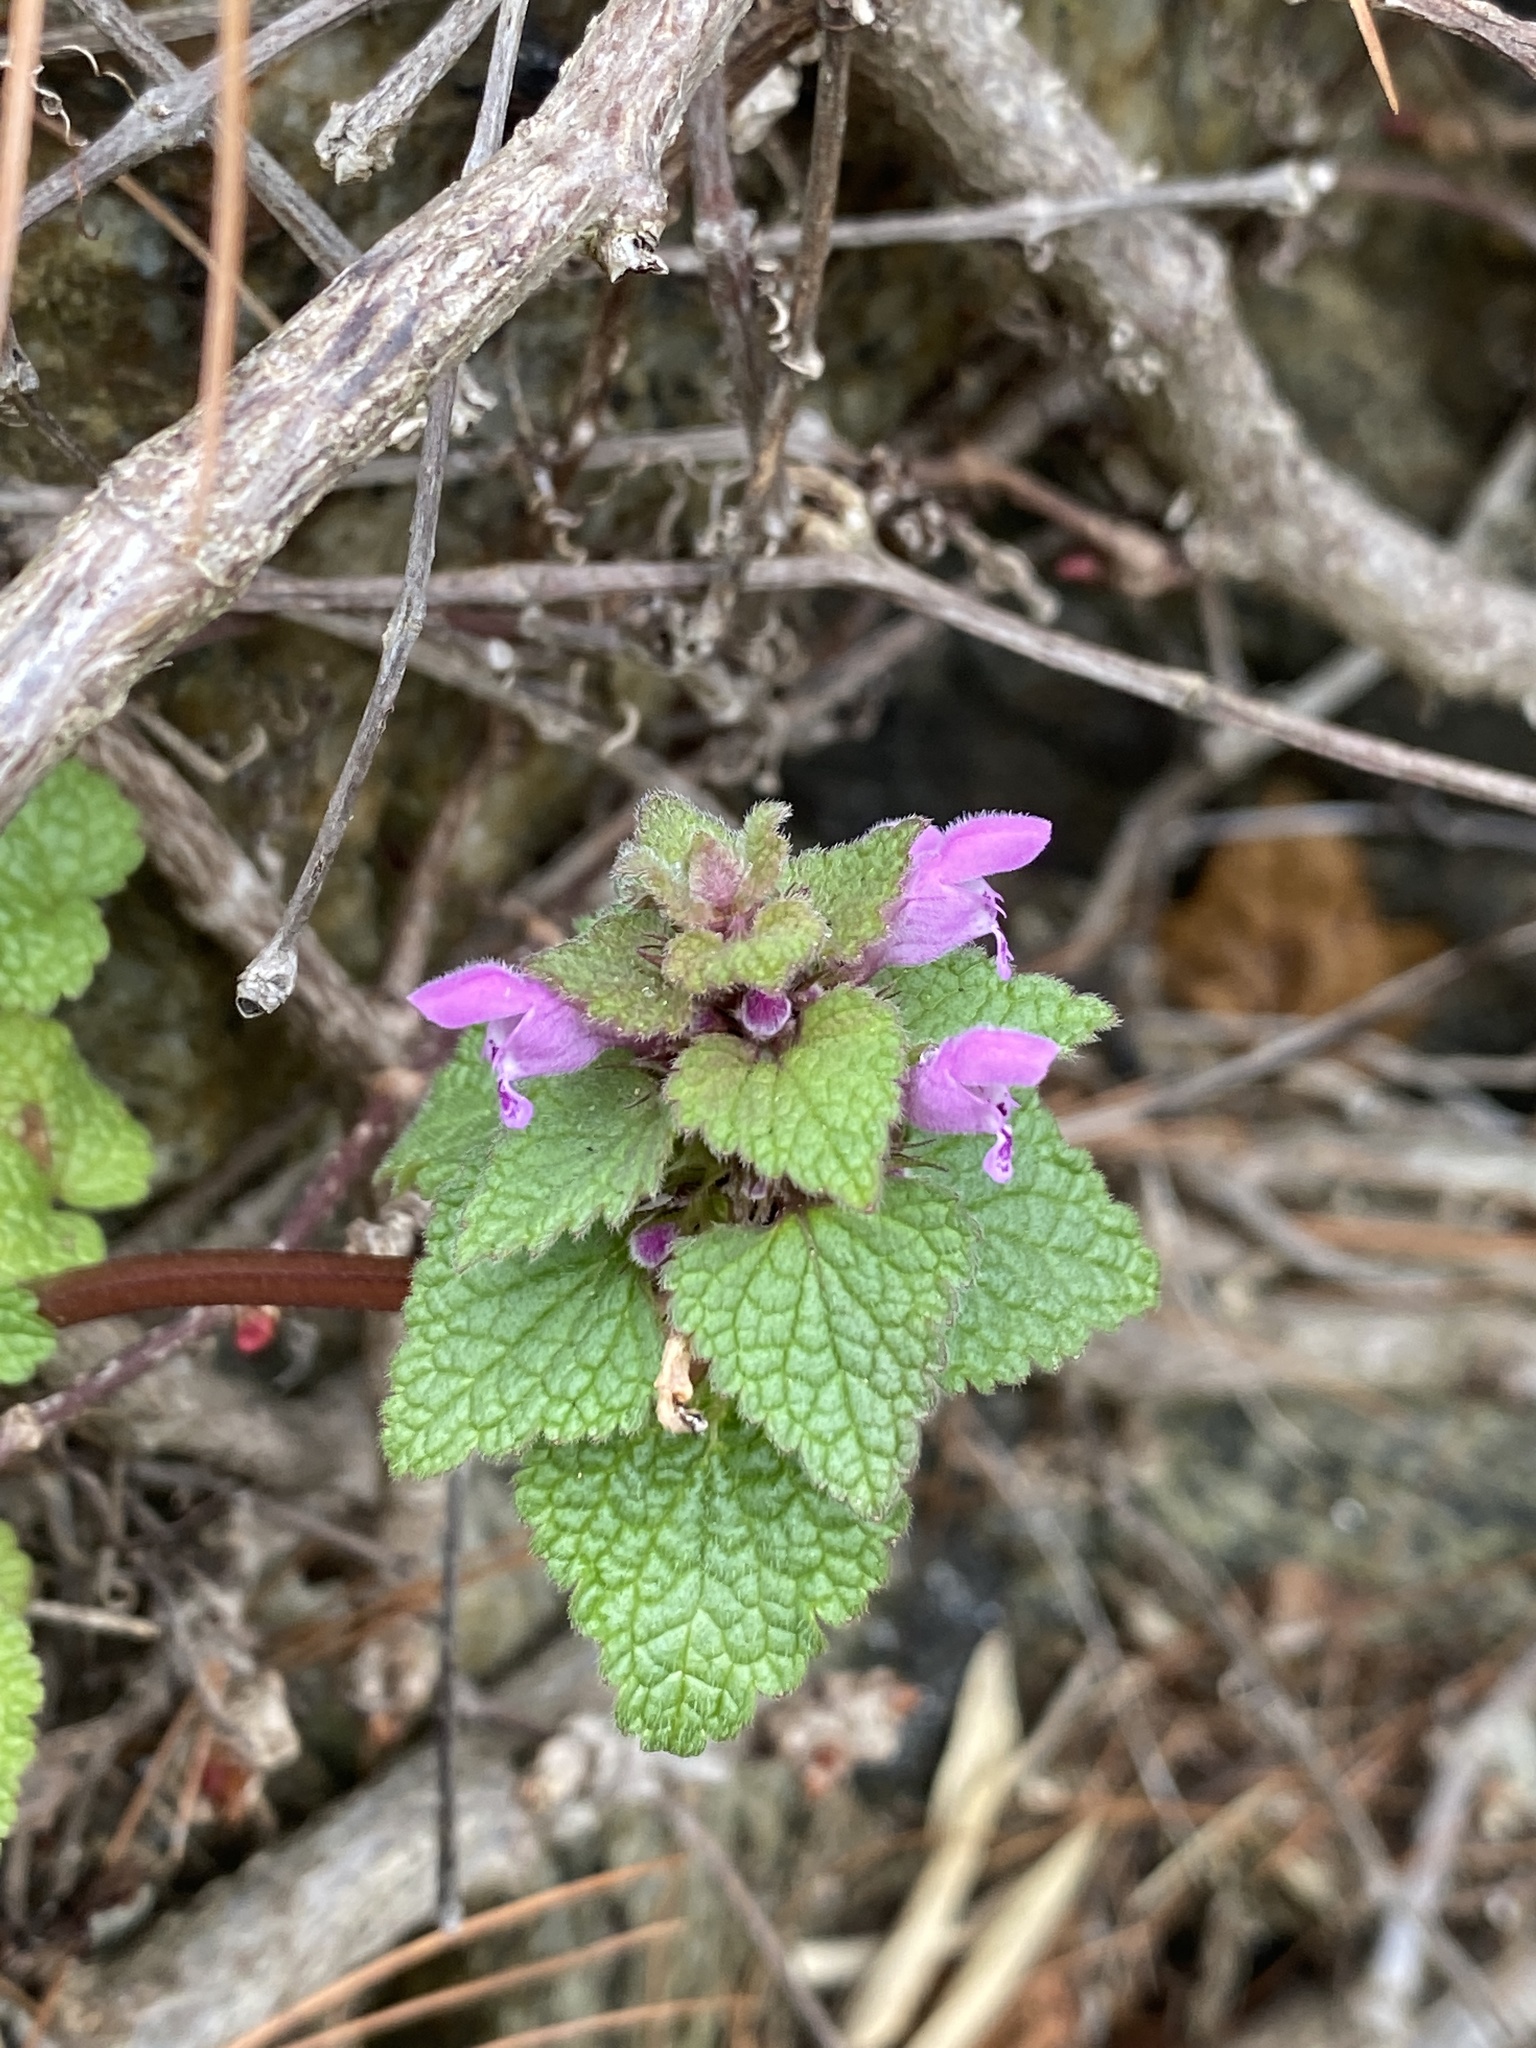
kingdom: Plantae
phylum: Tracheophyta
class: Magnoliopsida
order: Lamiales
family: Lamiaceae
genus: Lamium
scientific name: Lamium purpureum
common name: Red dead-nettle
